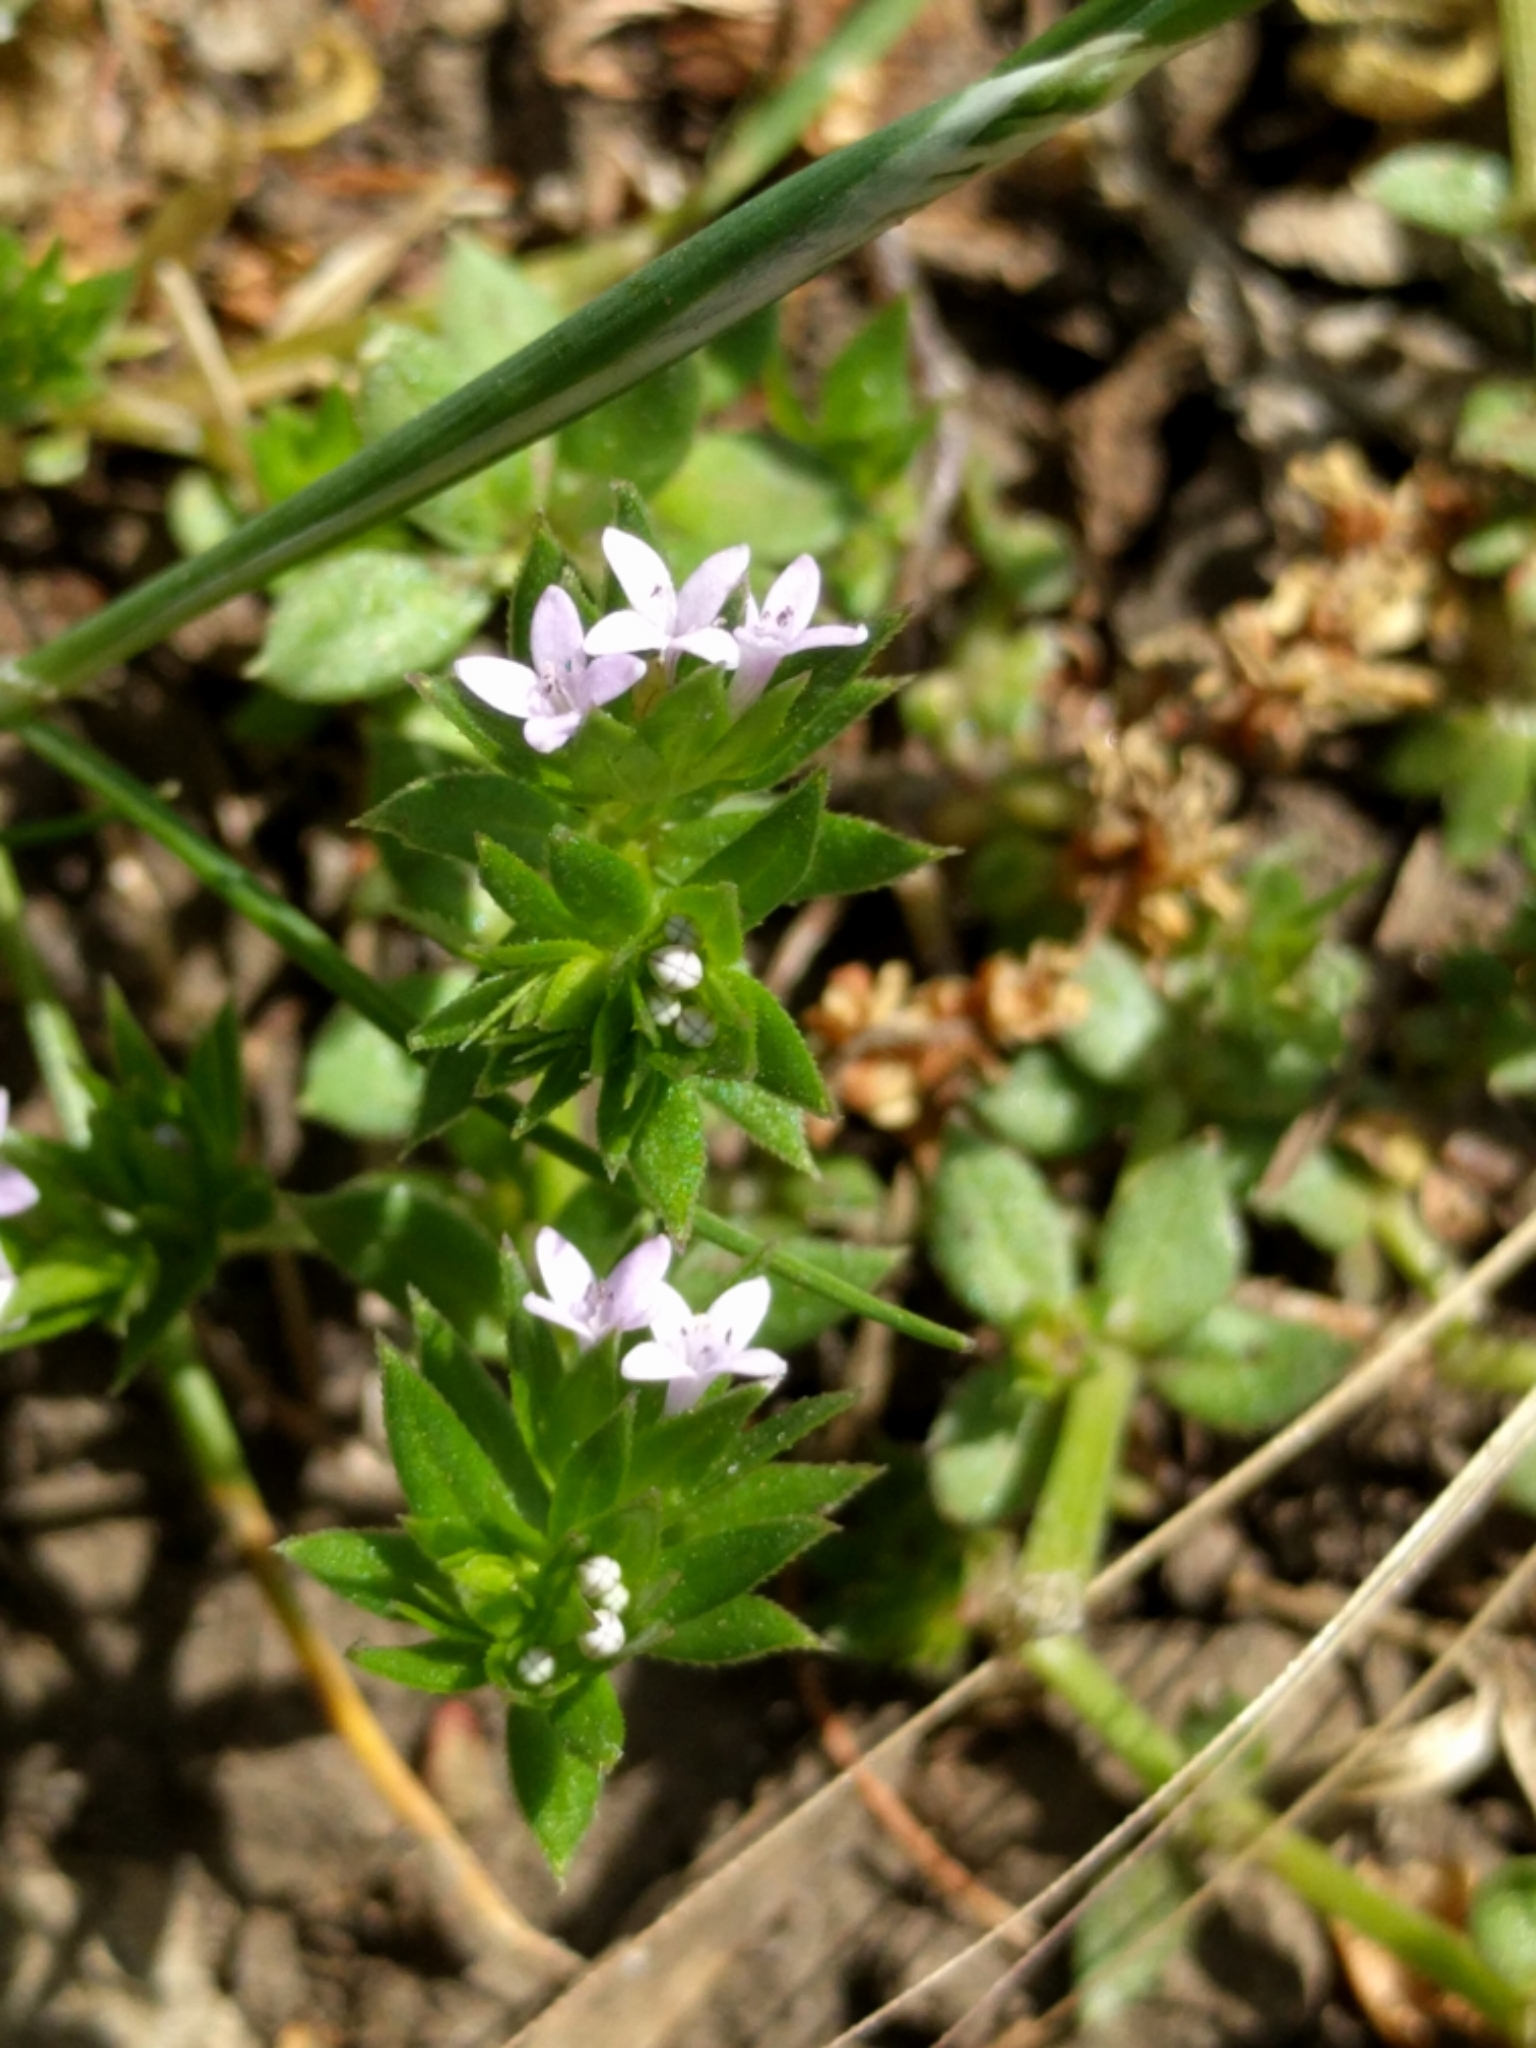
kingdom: Plantae
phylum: Tracheophyta
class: Magnoliopsida
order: Gentianales
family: Rubiaceae
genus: Sherardia
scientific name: Sherardia arvensis
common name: Field madder
